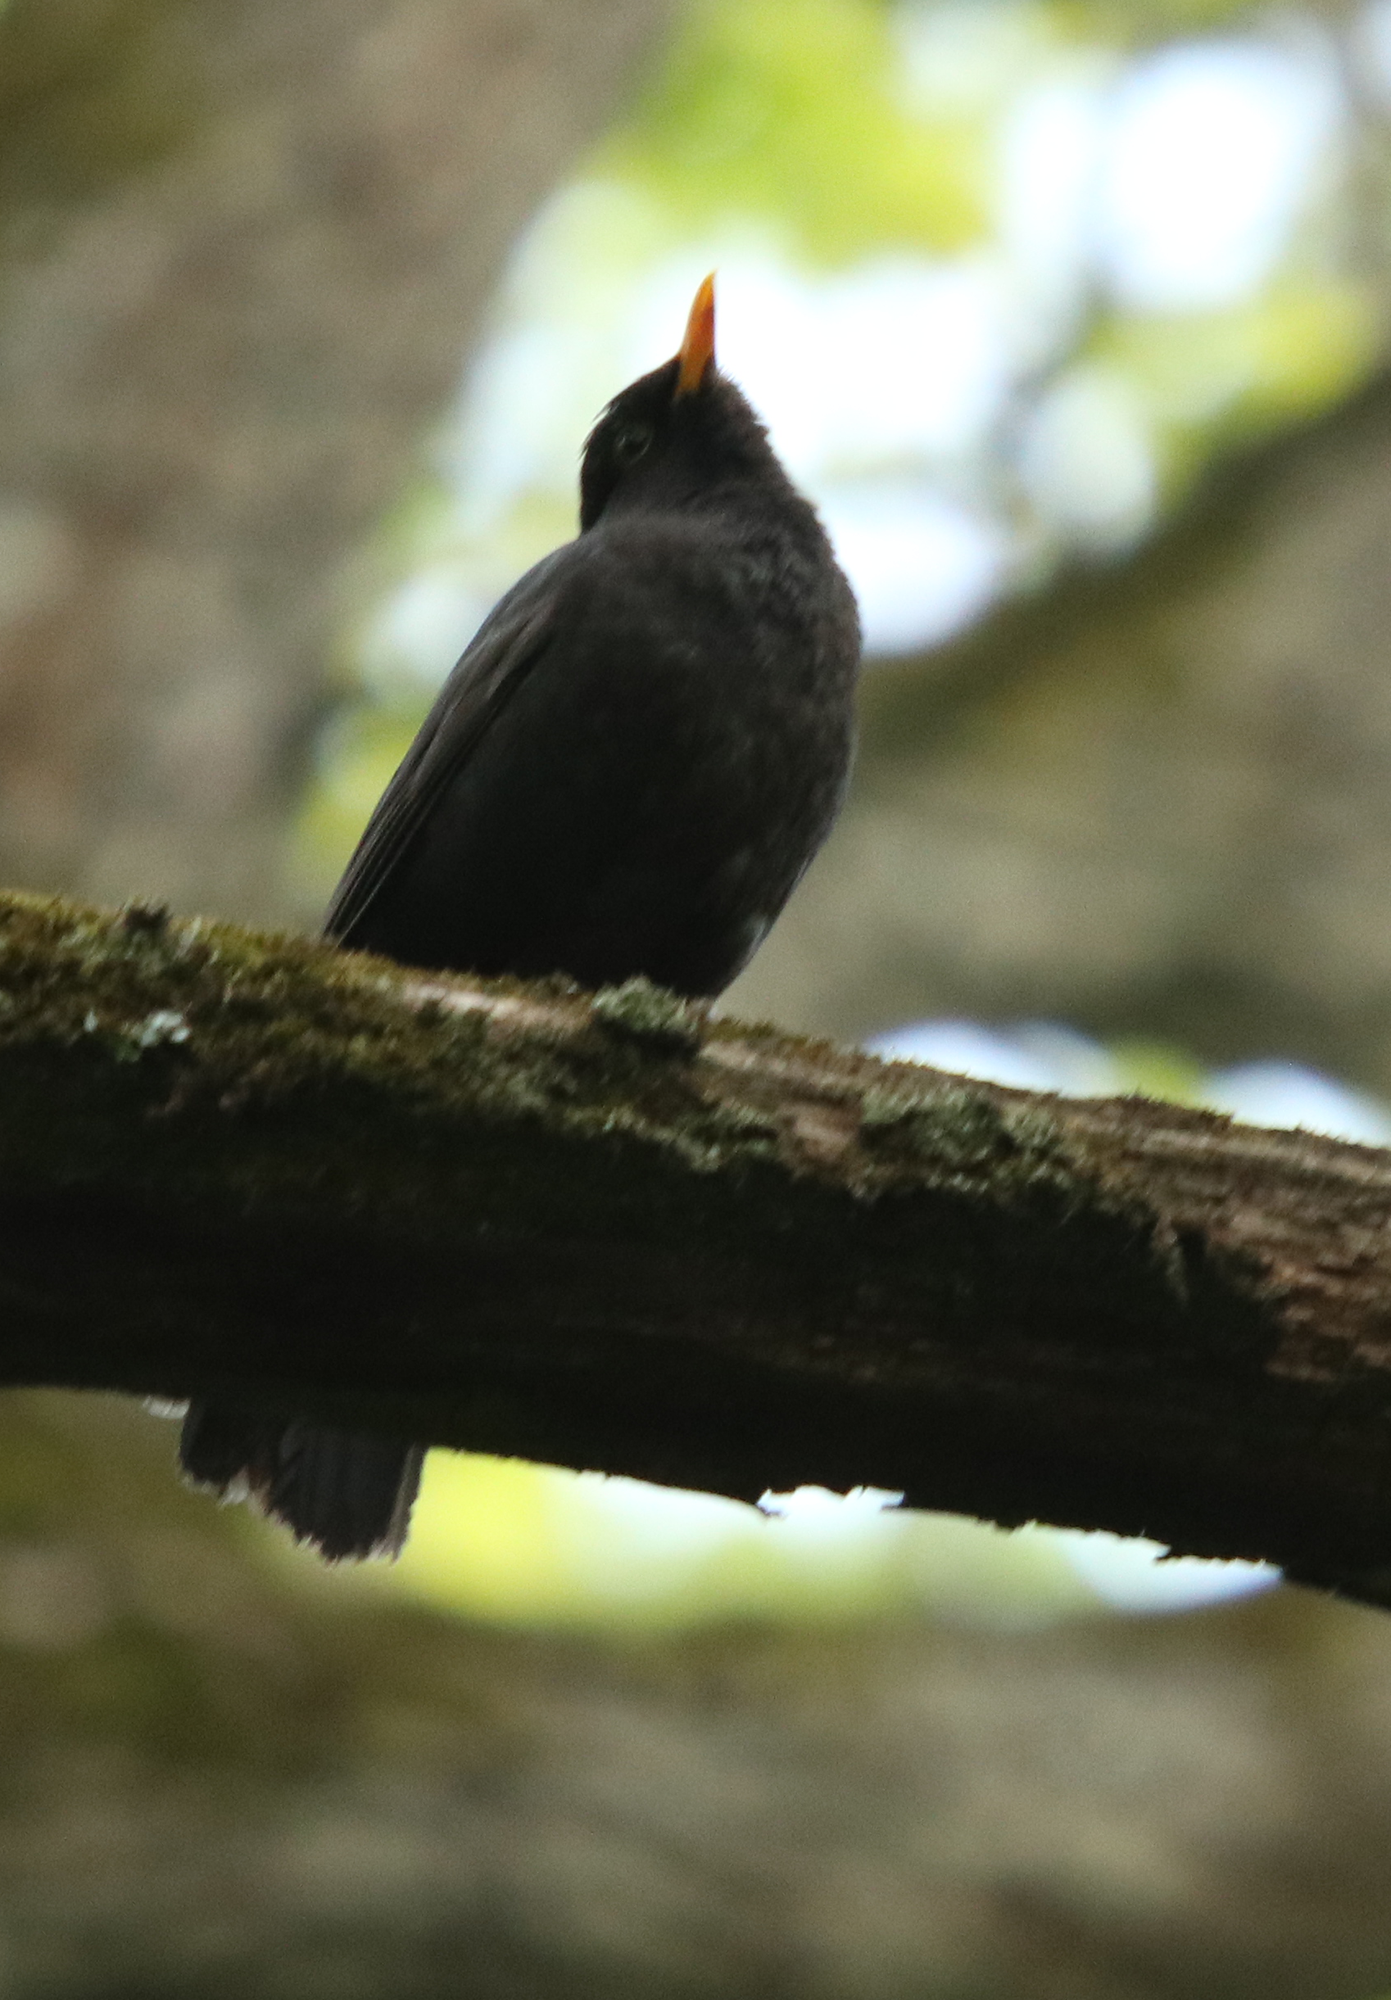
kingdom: Animalia
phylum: Chordata
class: Aves
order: Passeriformes
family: Turdidae
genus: Turdus
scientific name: Turdus merula
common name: Common blackbird
